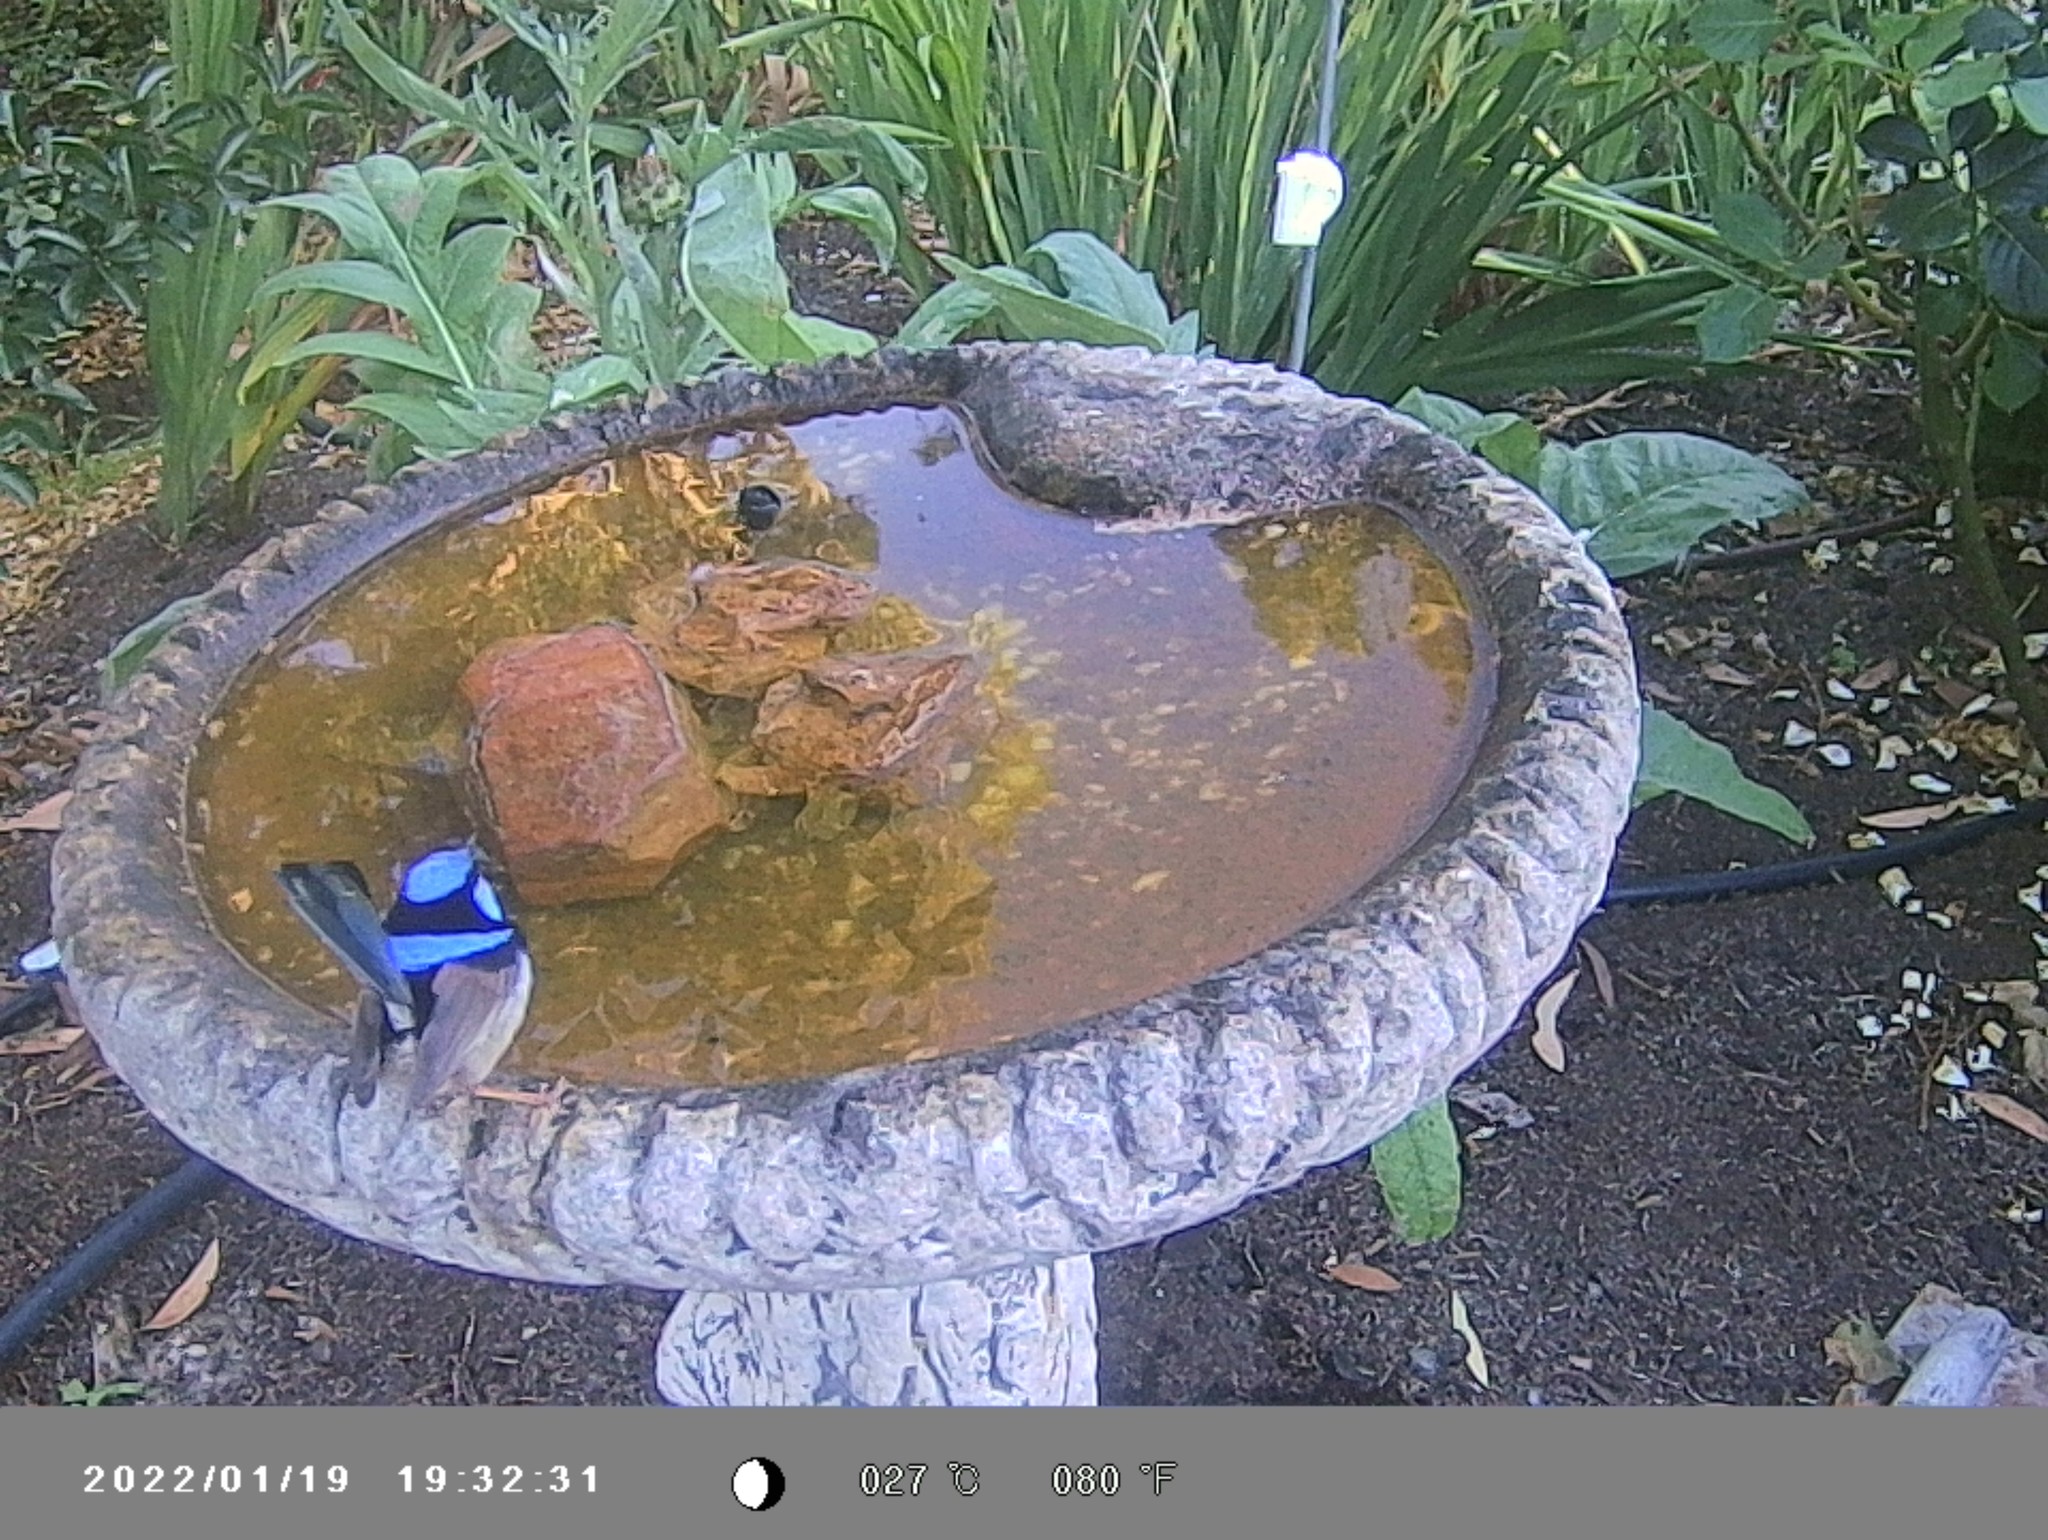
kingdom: Animalia
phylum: Chordata
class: Aves
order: Passeriformes
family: Maluridae
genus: Malurus
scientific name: Malurus cyaneus
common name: Superb fairywren
